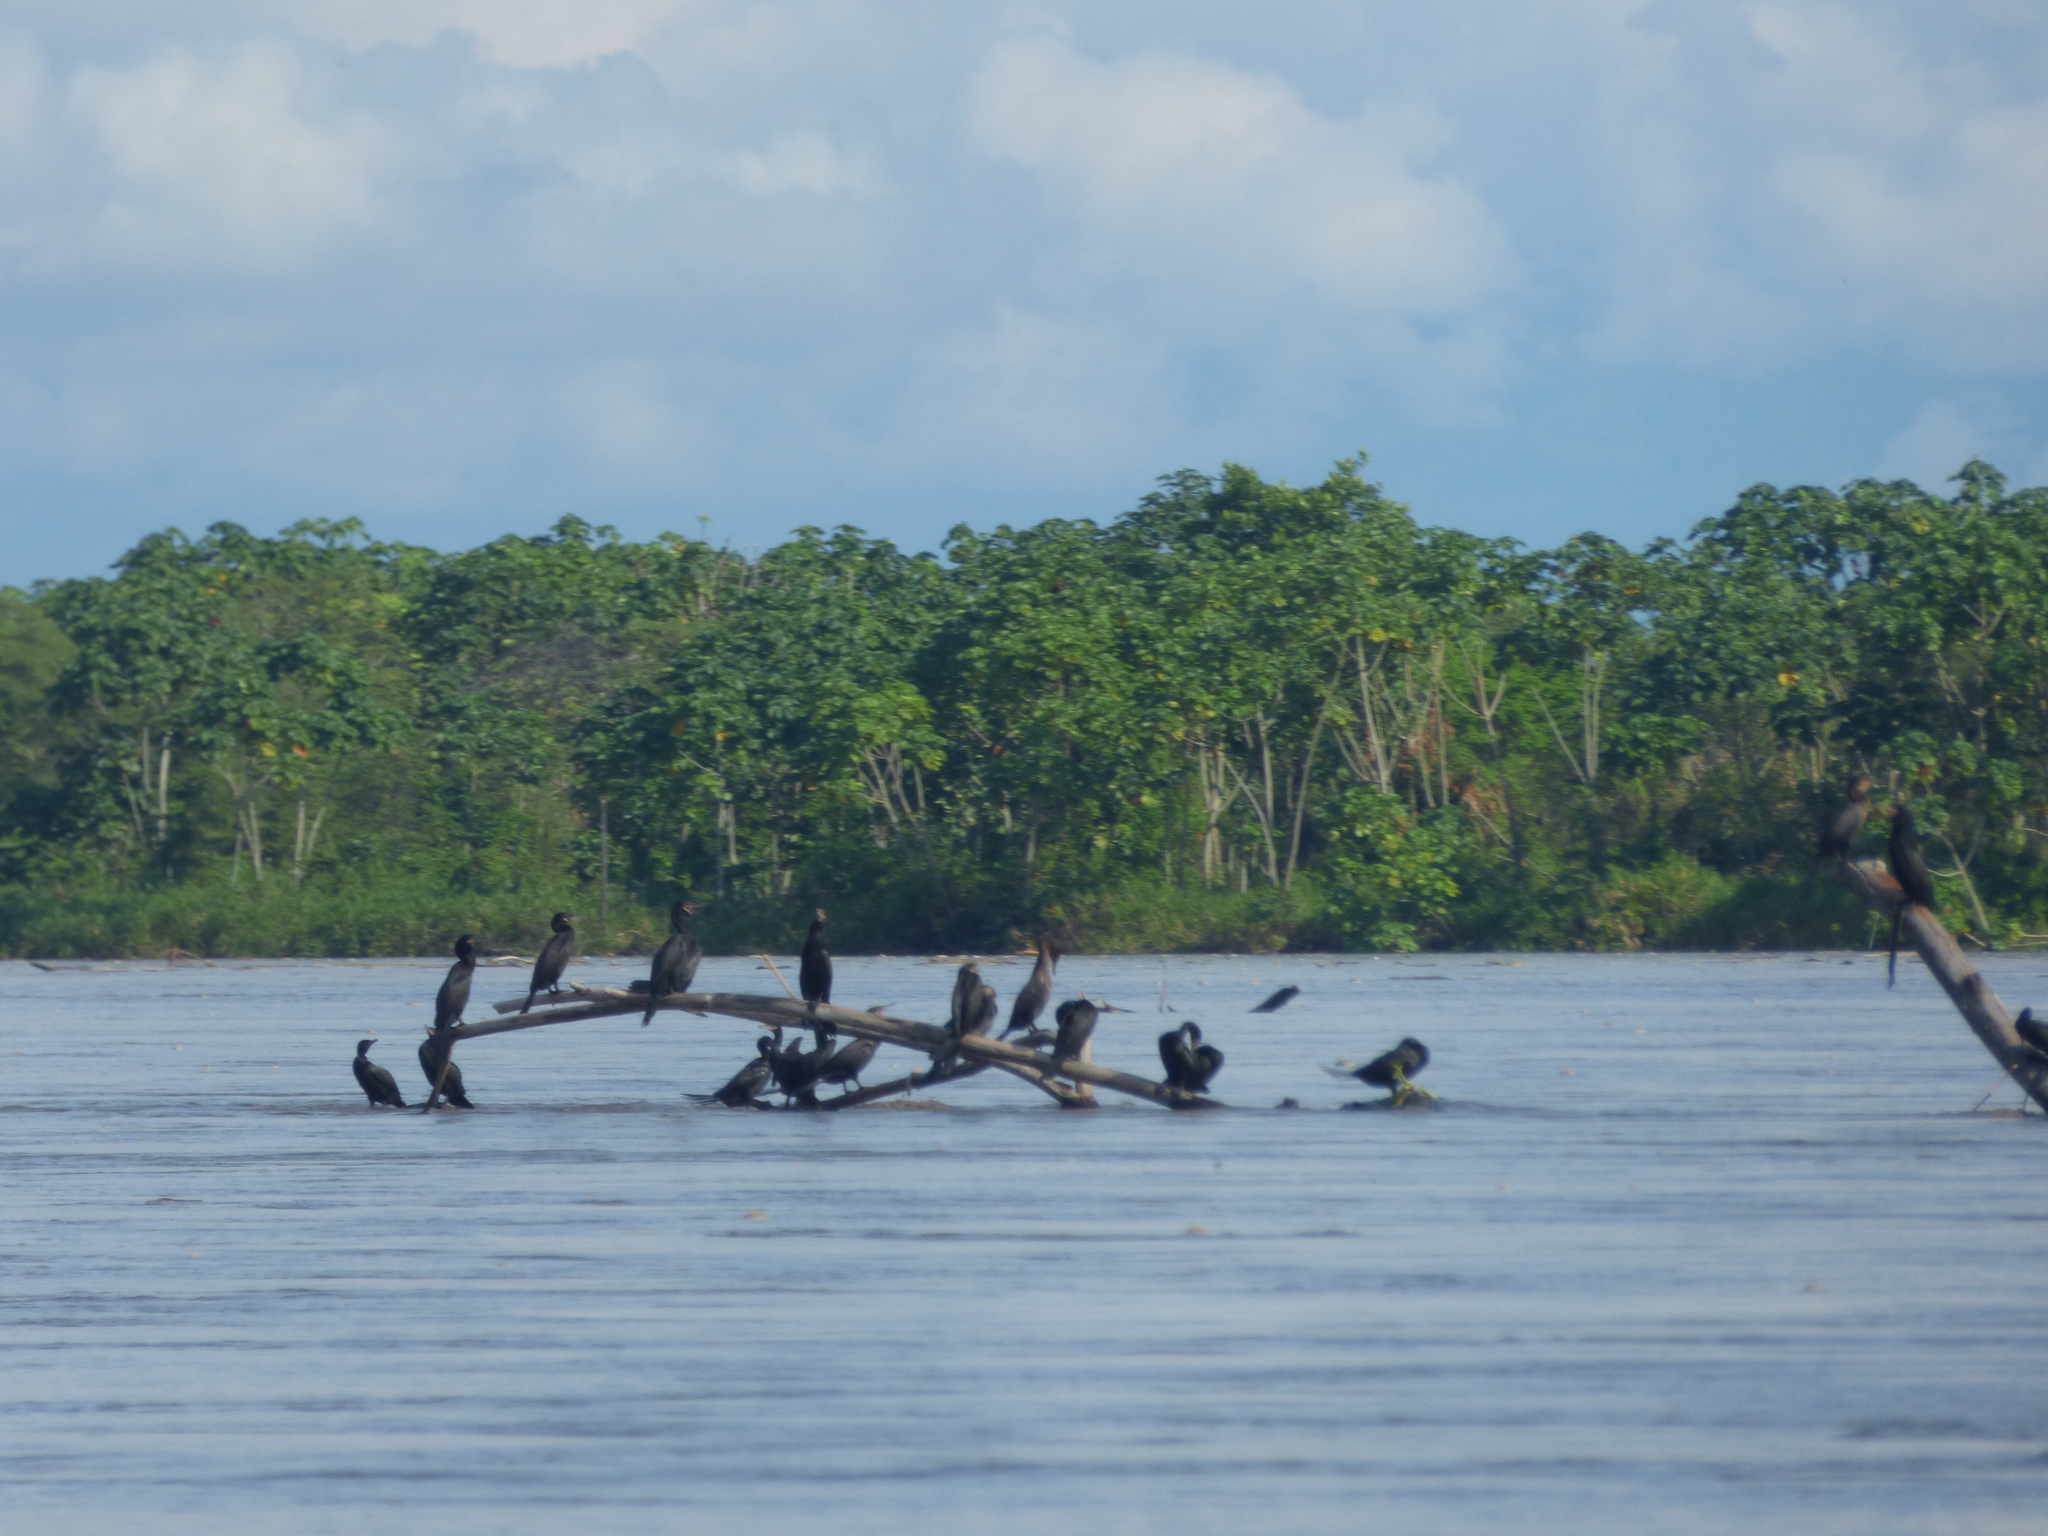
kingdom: Animalia
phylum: Chordata
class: Aves
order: Suliformes
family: Phalacrocoracidae
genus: Phalacrocorax
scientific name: Phalacrocorax brasilianus
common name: Neotropic cormorant
